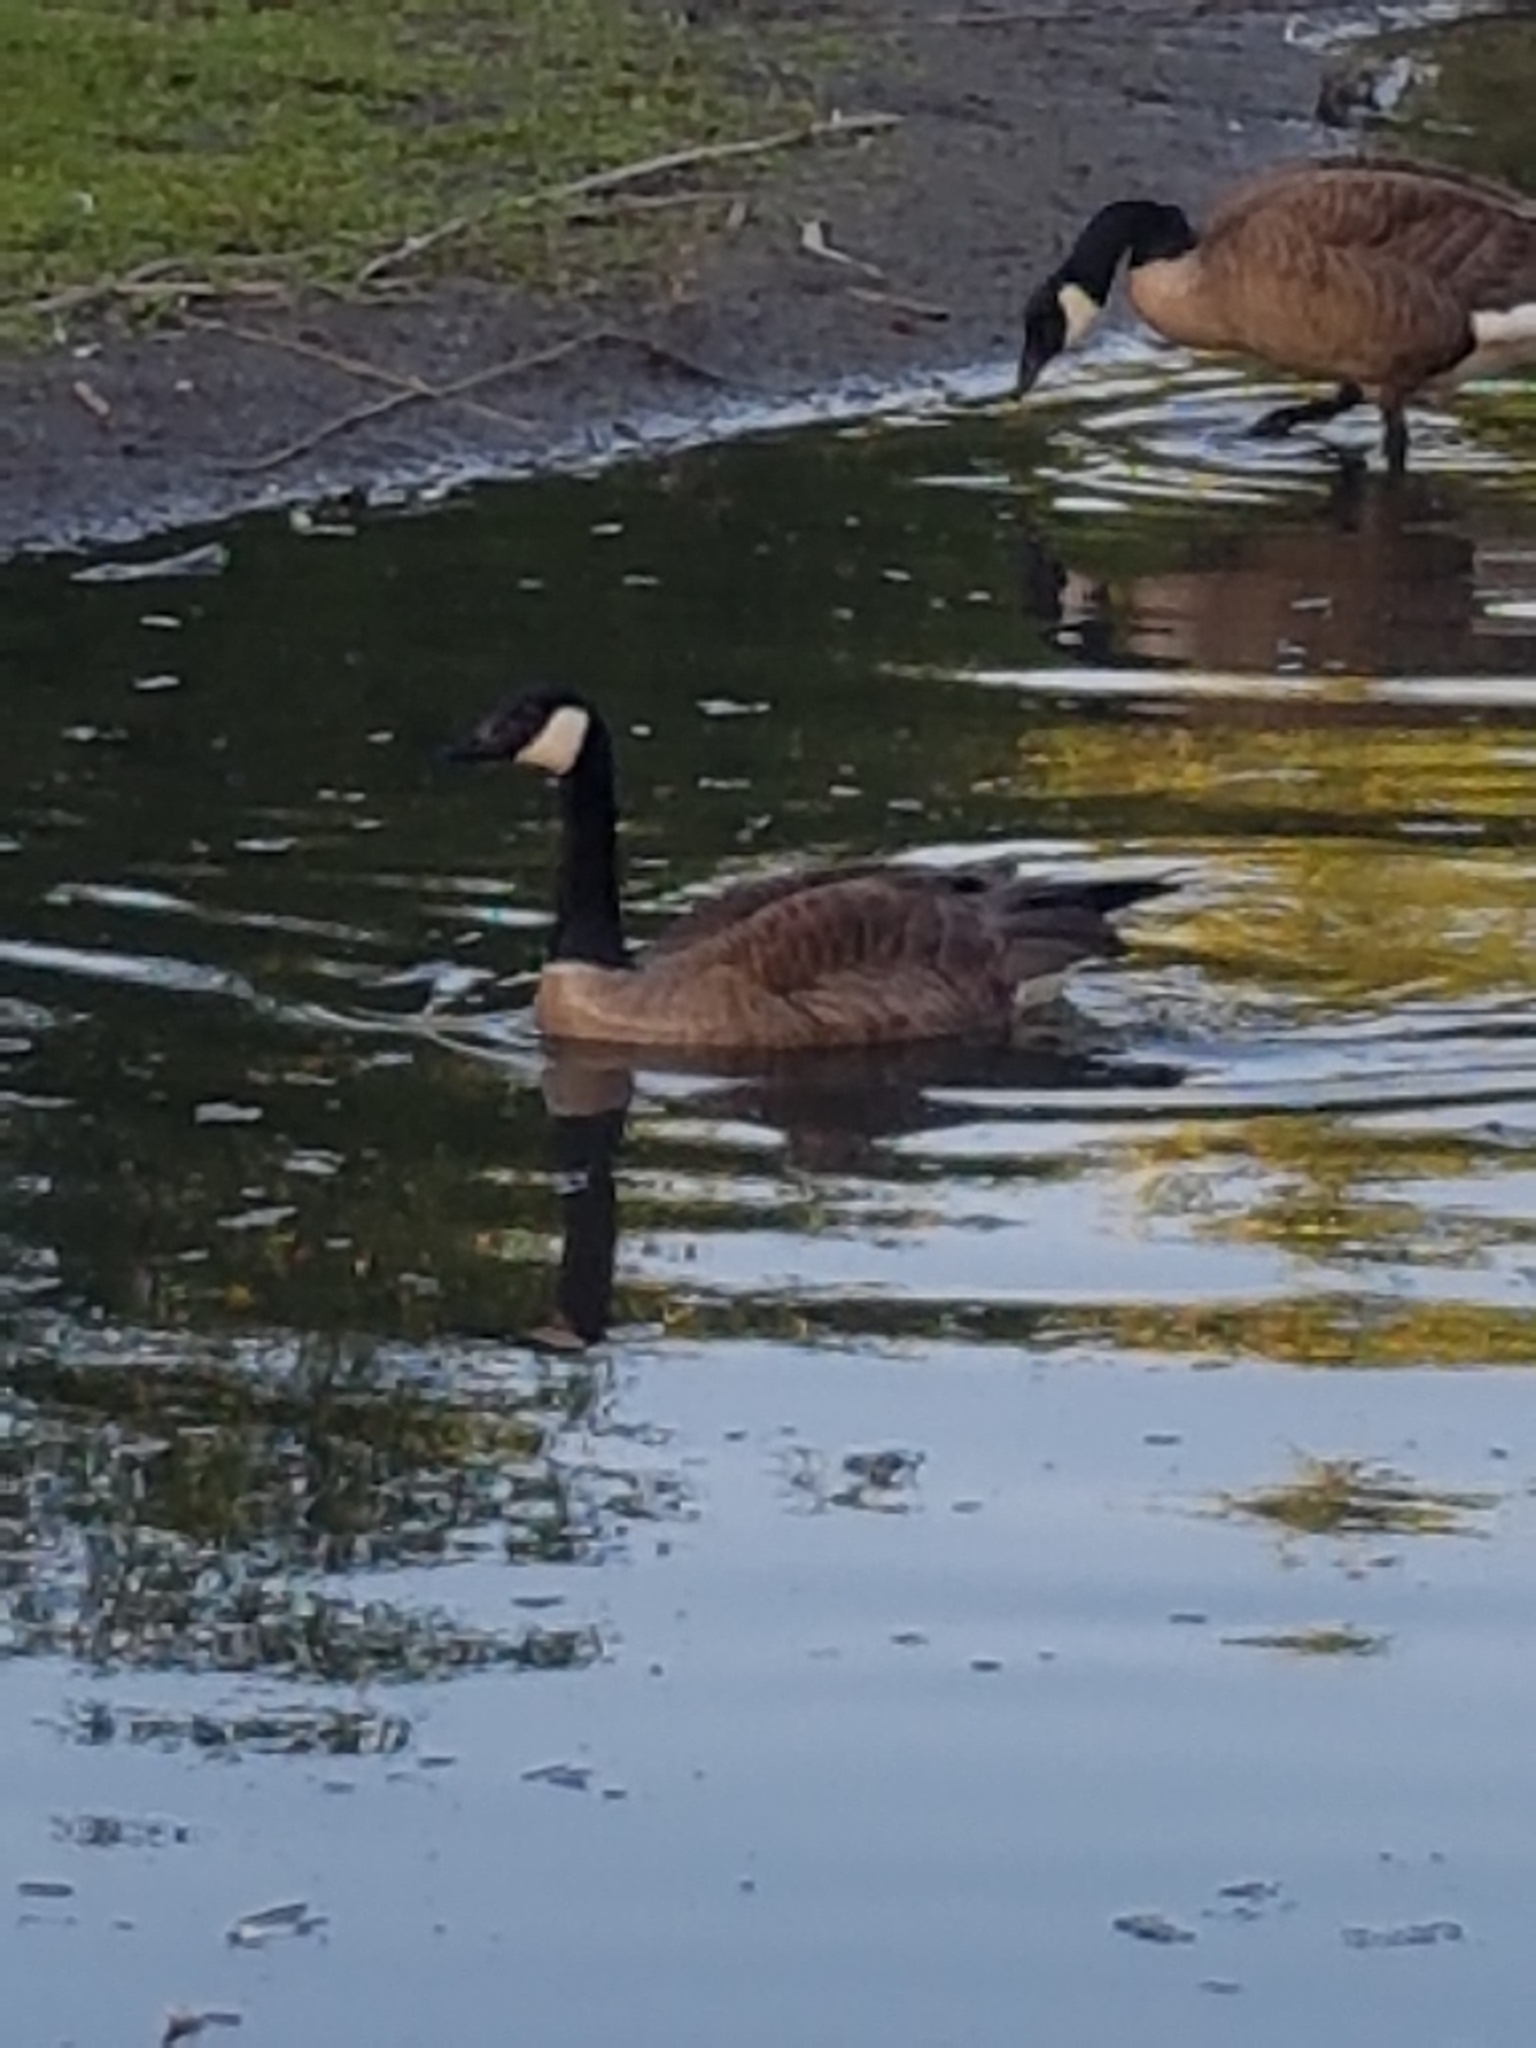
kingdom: Animalia
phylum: Chordata
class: Aves
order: Anseriformes
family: Anatidae
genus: Branta
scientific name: Branta canadensis
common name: Canada goose
